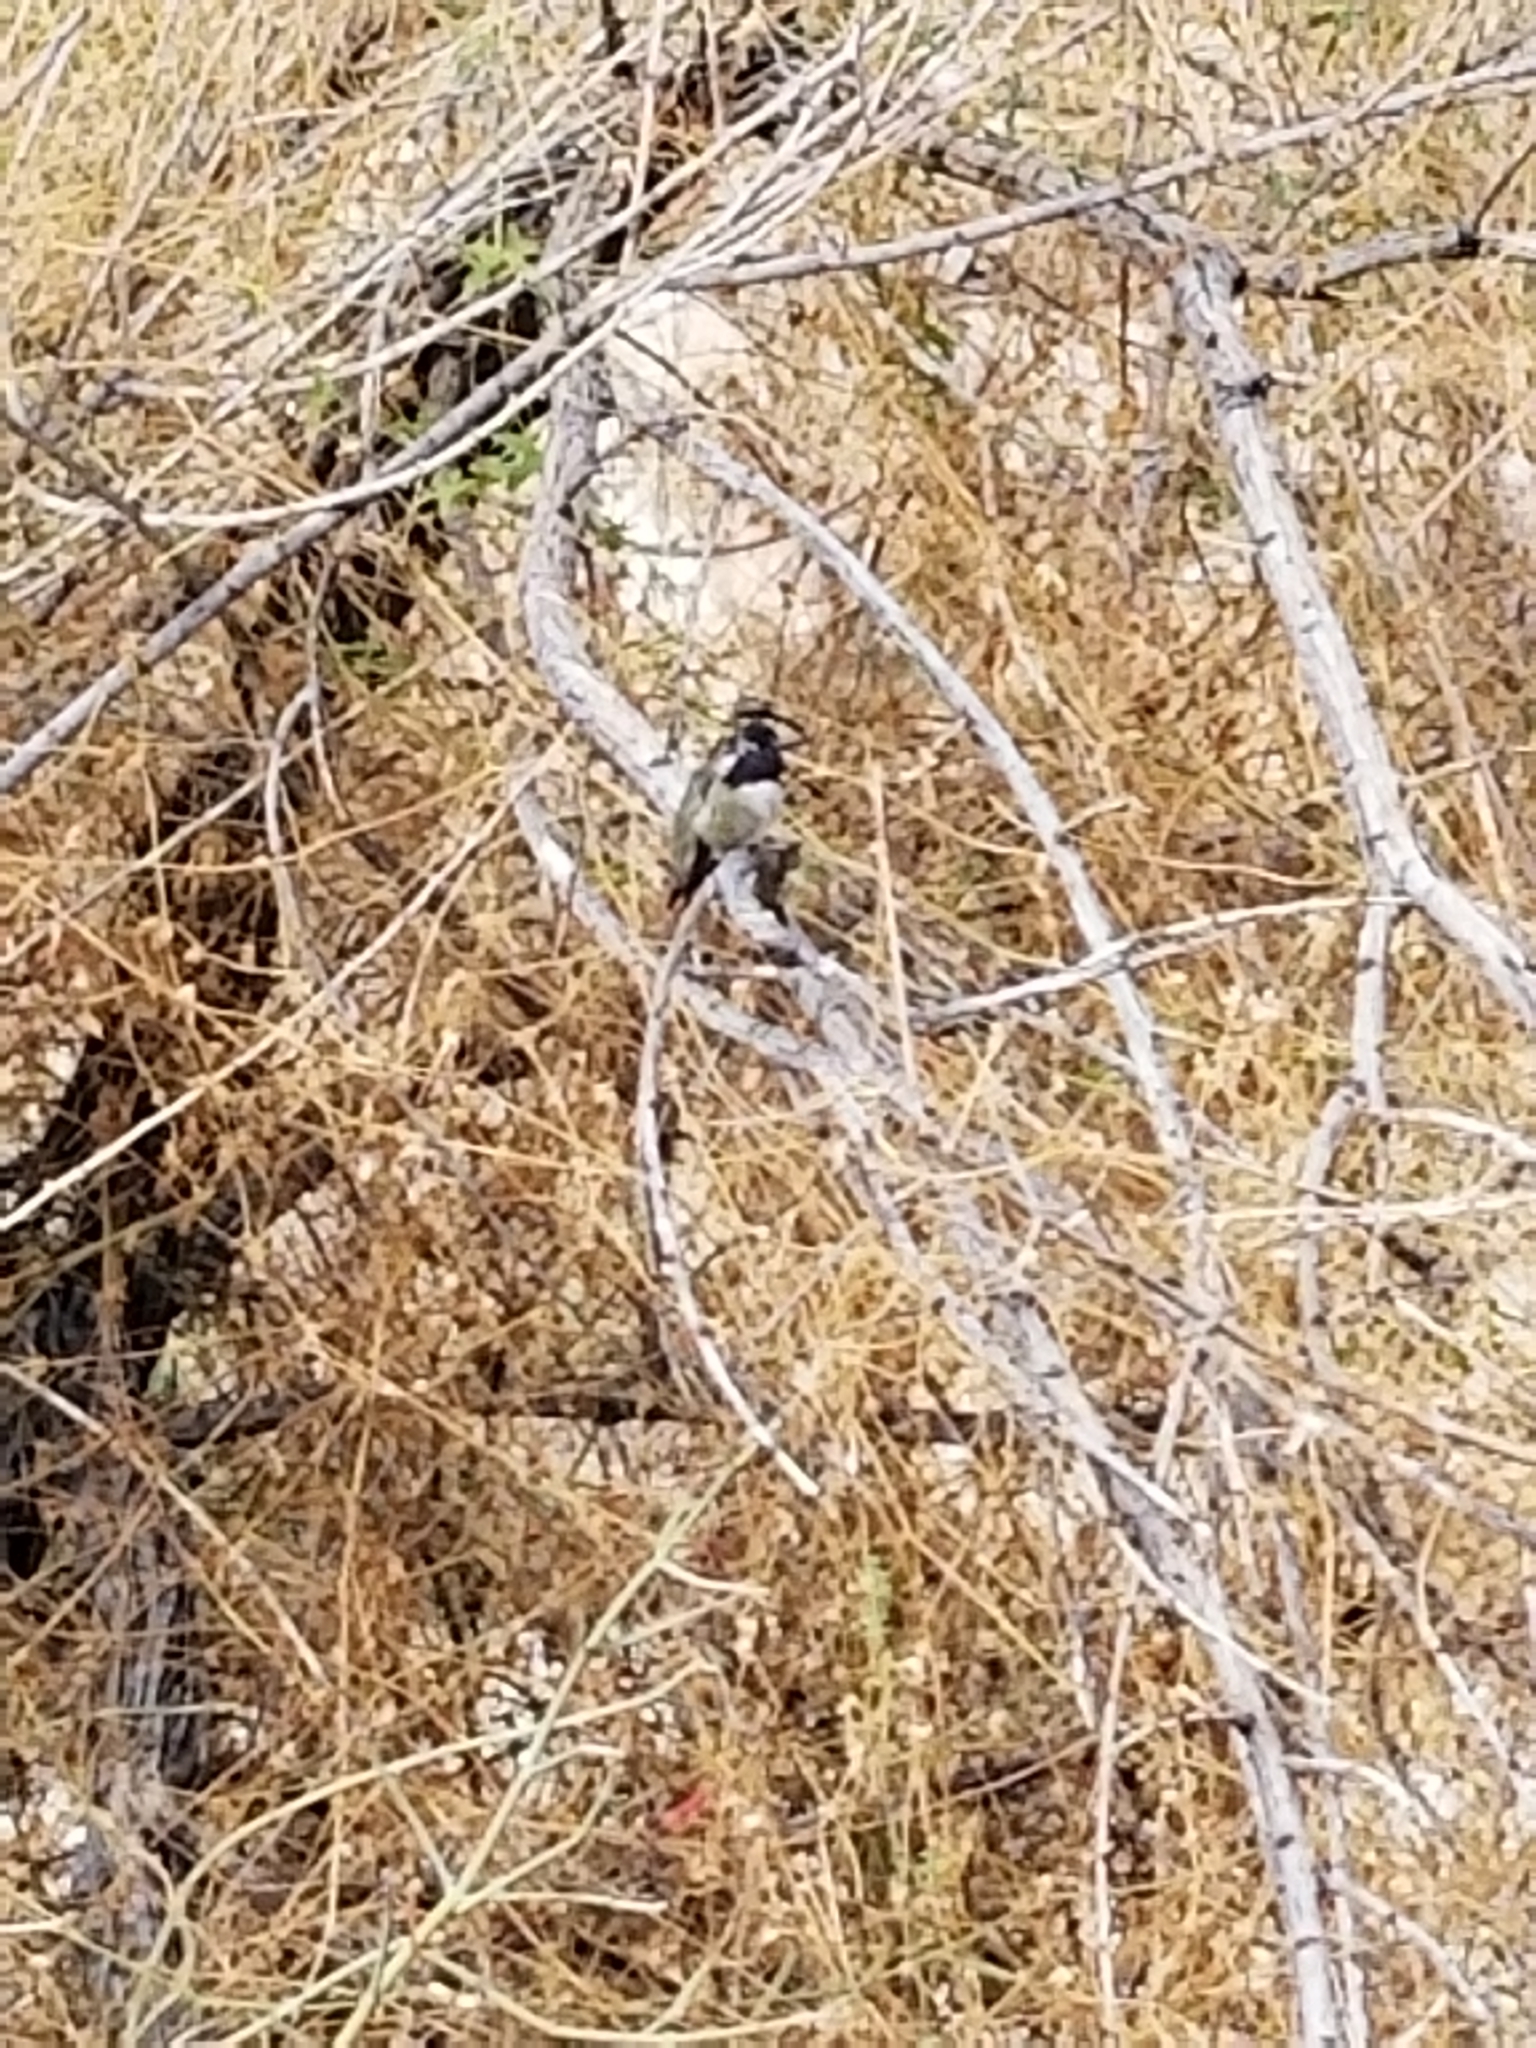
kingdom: Animalia
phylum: Chordata
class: Aves
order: Apodiformes
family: Trochilidae
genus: Calypte
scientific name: Calypte costae
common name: Costa's hummingbird
